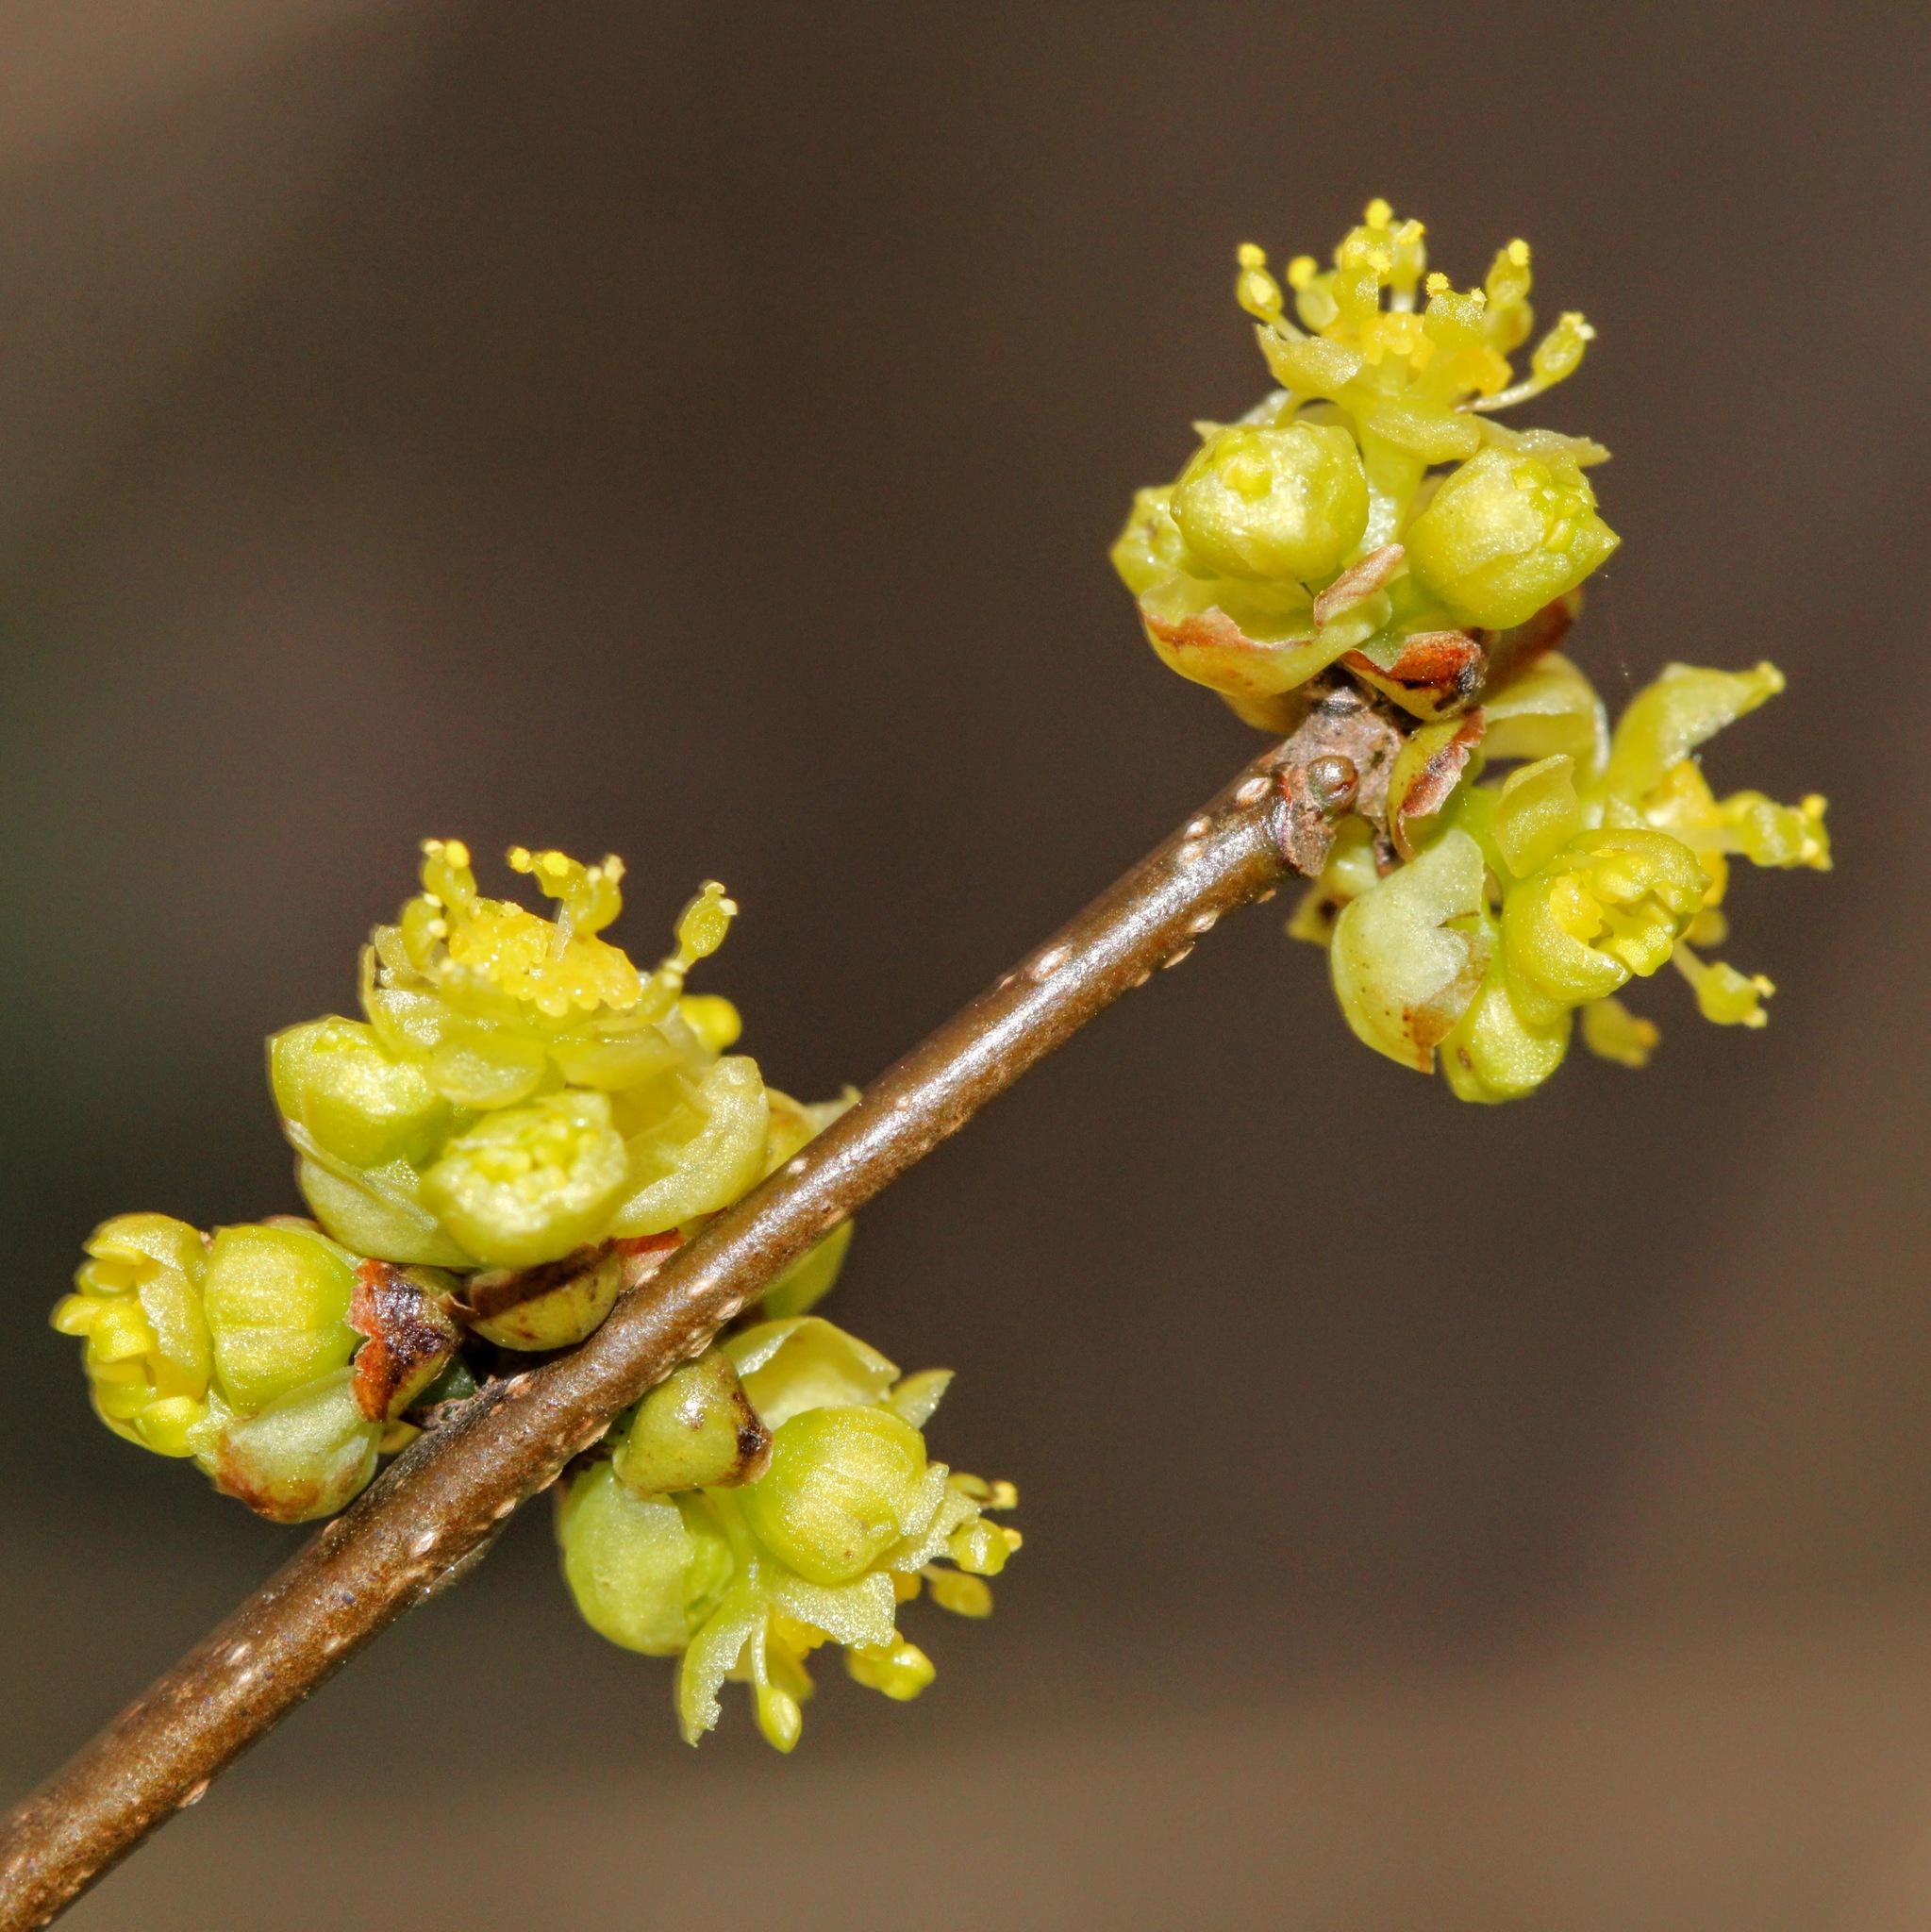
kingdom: Plantae
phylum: Tracheophyta
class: Magnoliopsida
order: Laurales
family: Lauraceae
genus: Lindera
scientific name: Lindera benzoin
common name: Spicebush
